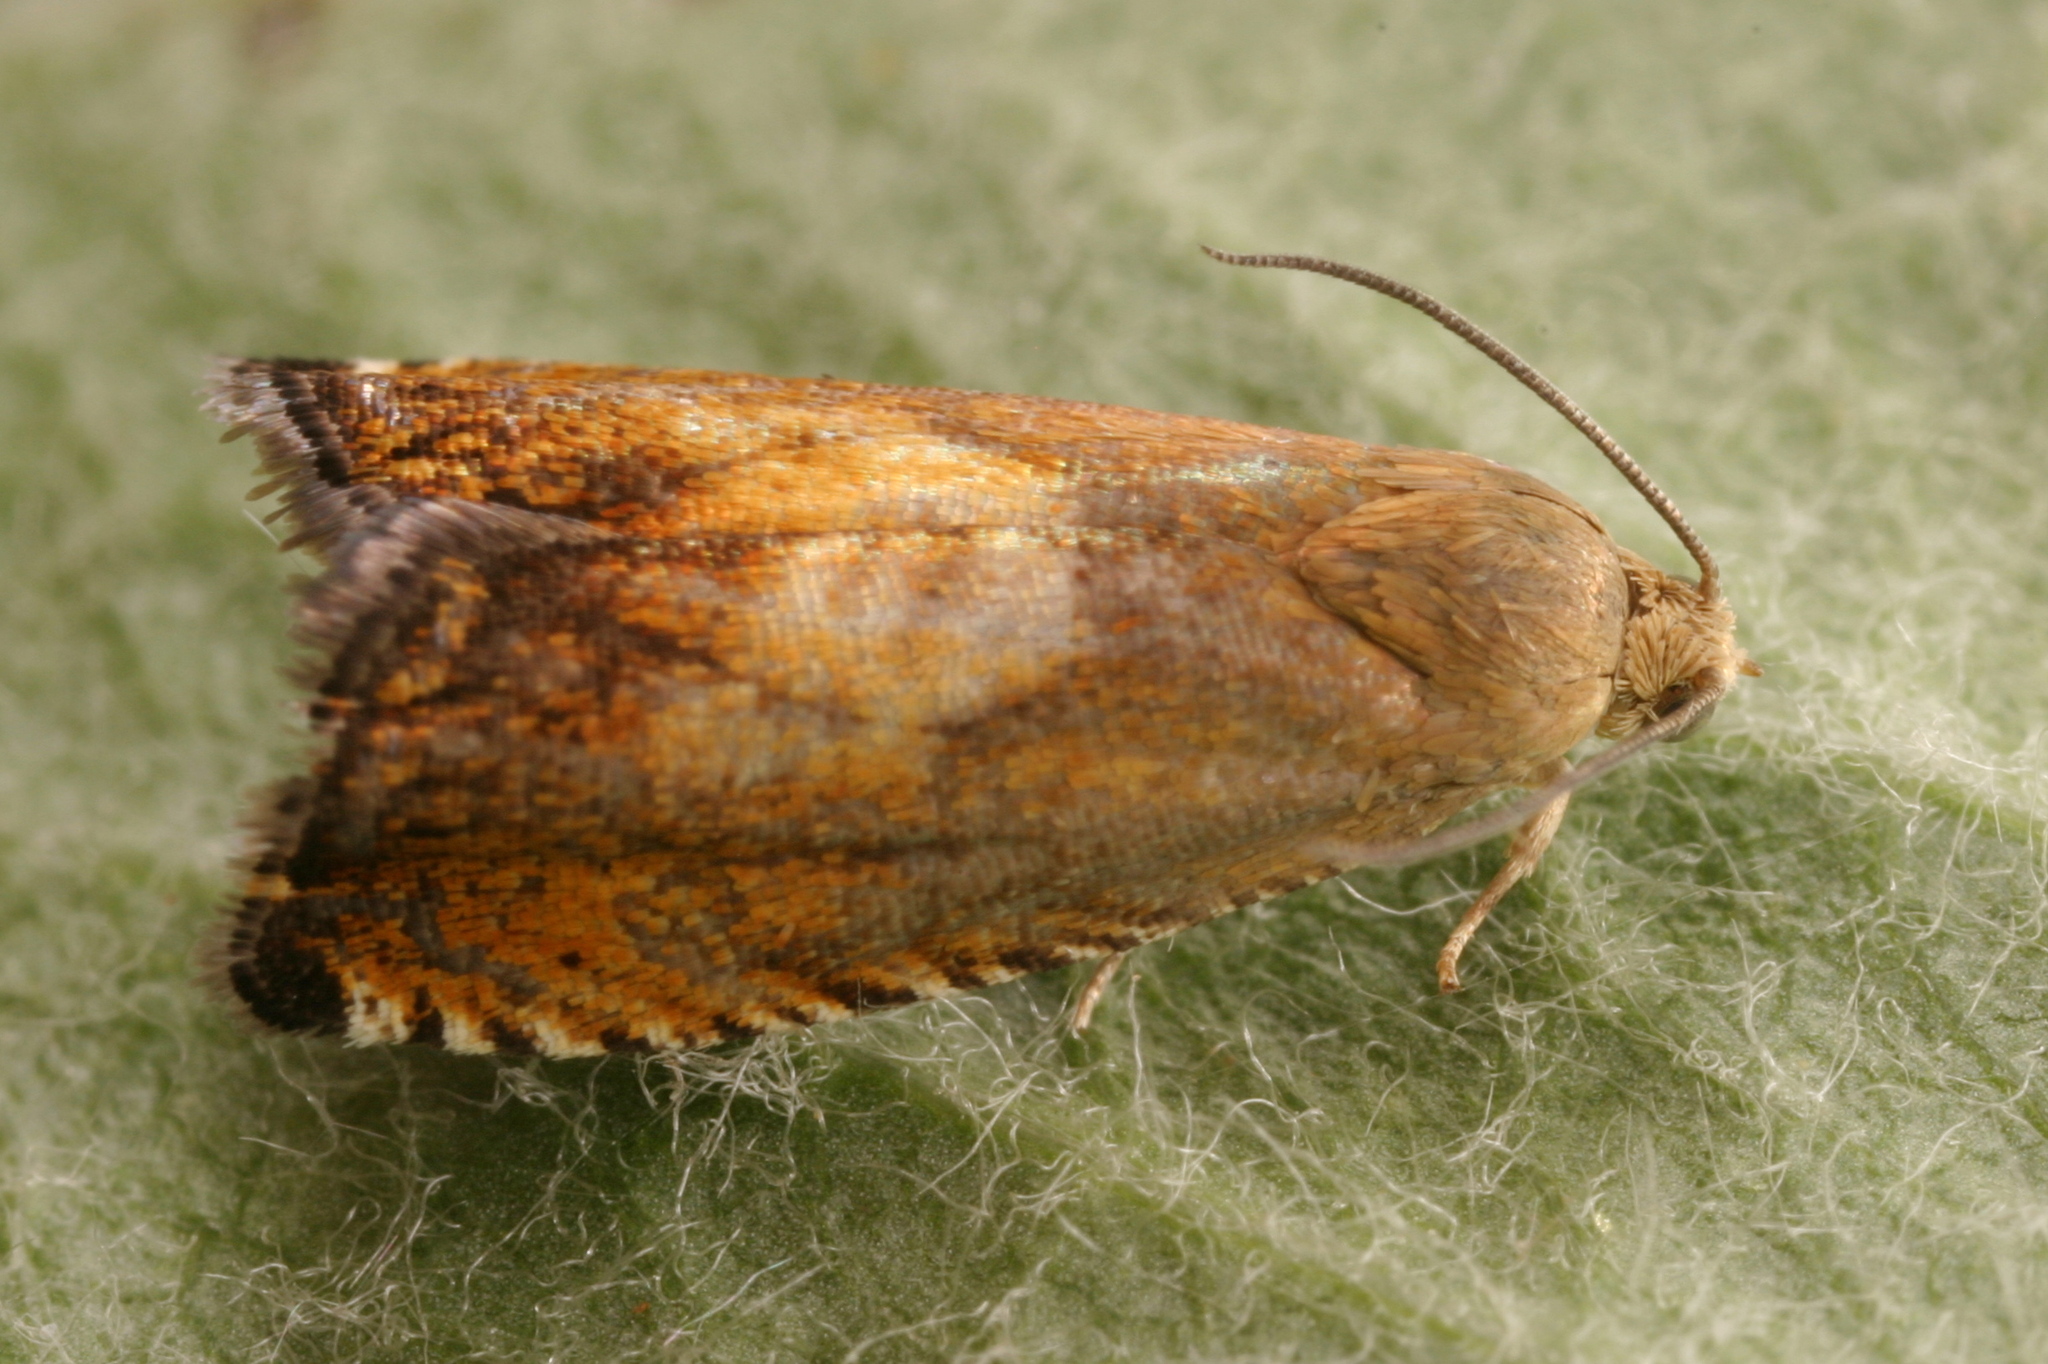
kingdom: Animalia
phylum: Arthropoda
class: Insecta
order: Lepidoptera
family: Tortricidae
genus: Pammene
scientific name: Pammene aurita
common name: Sycamore piercer
